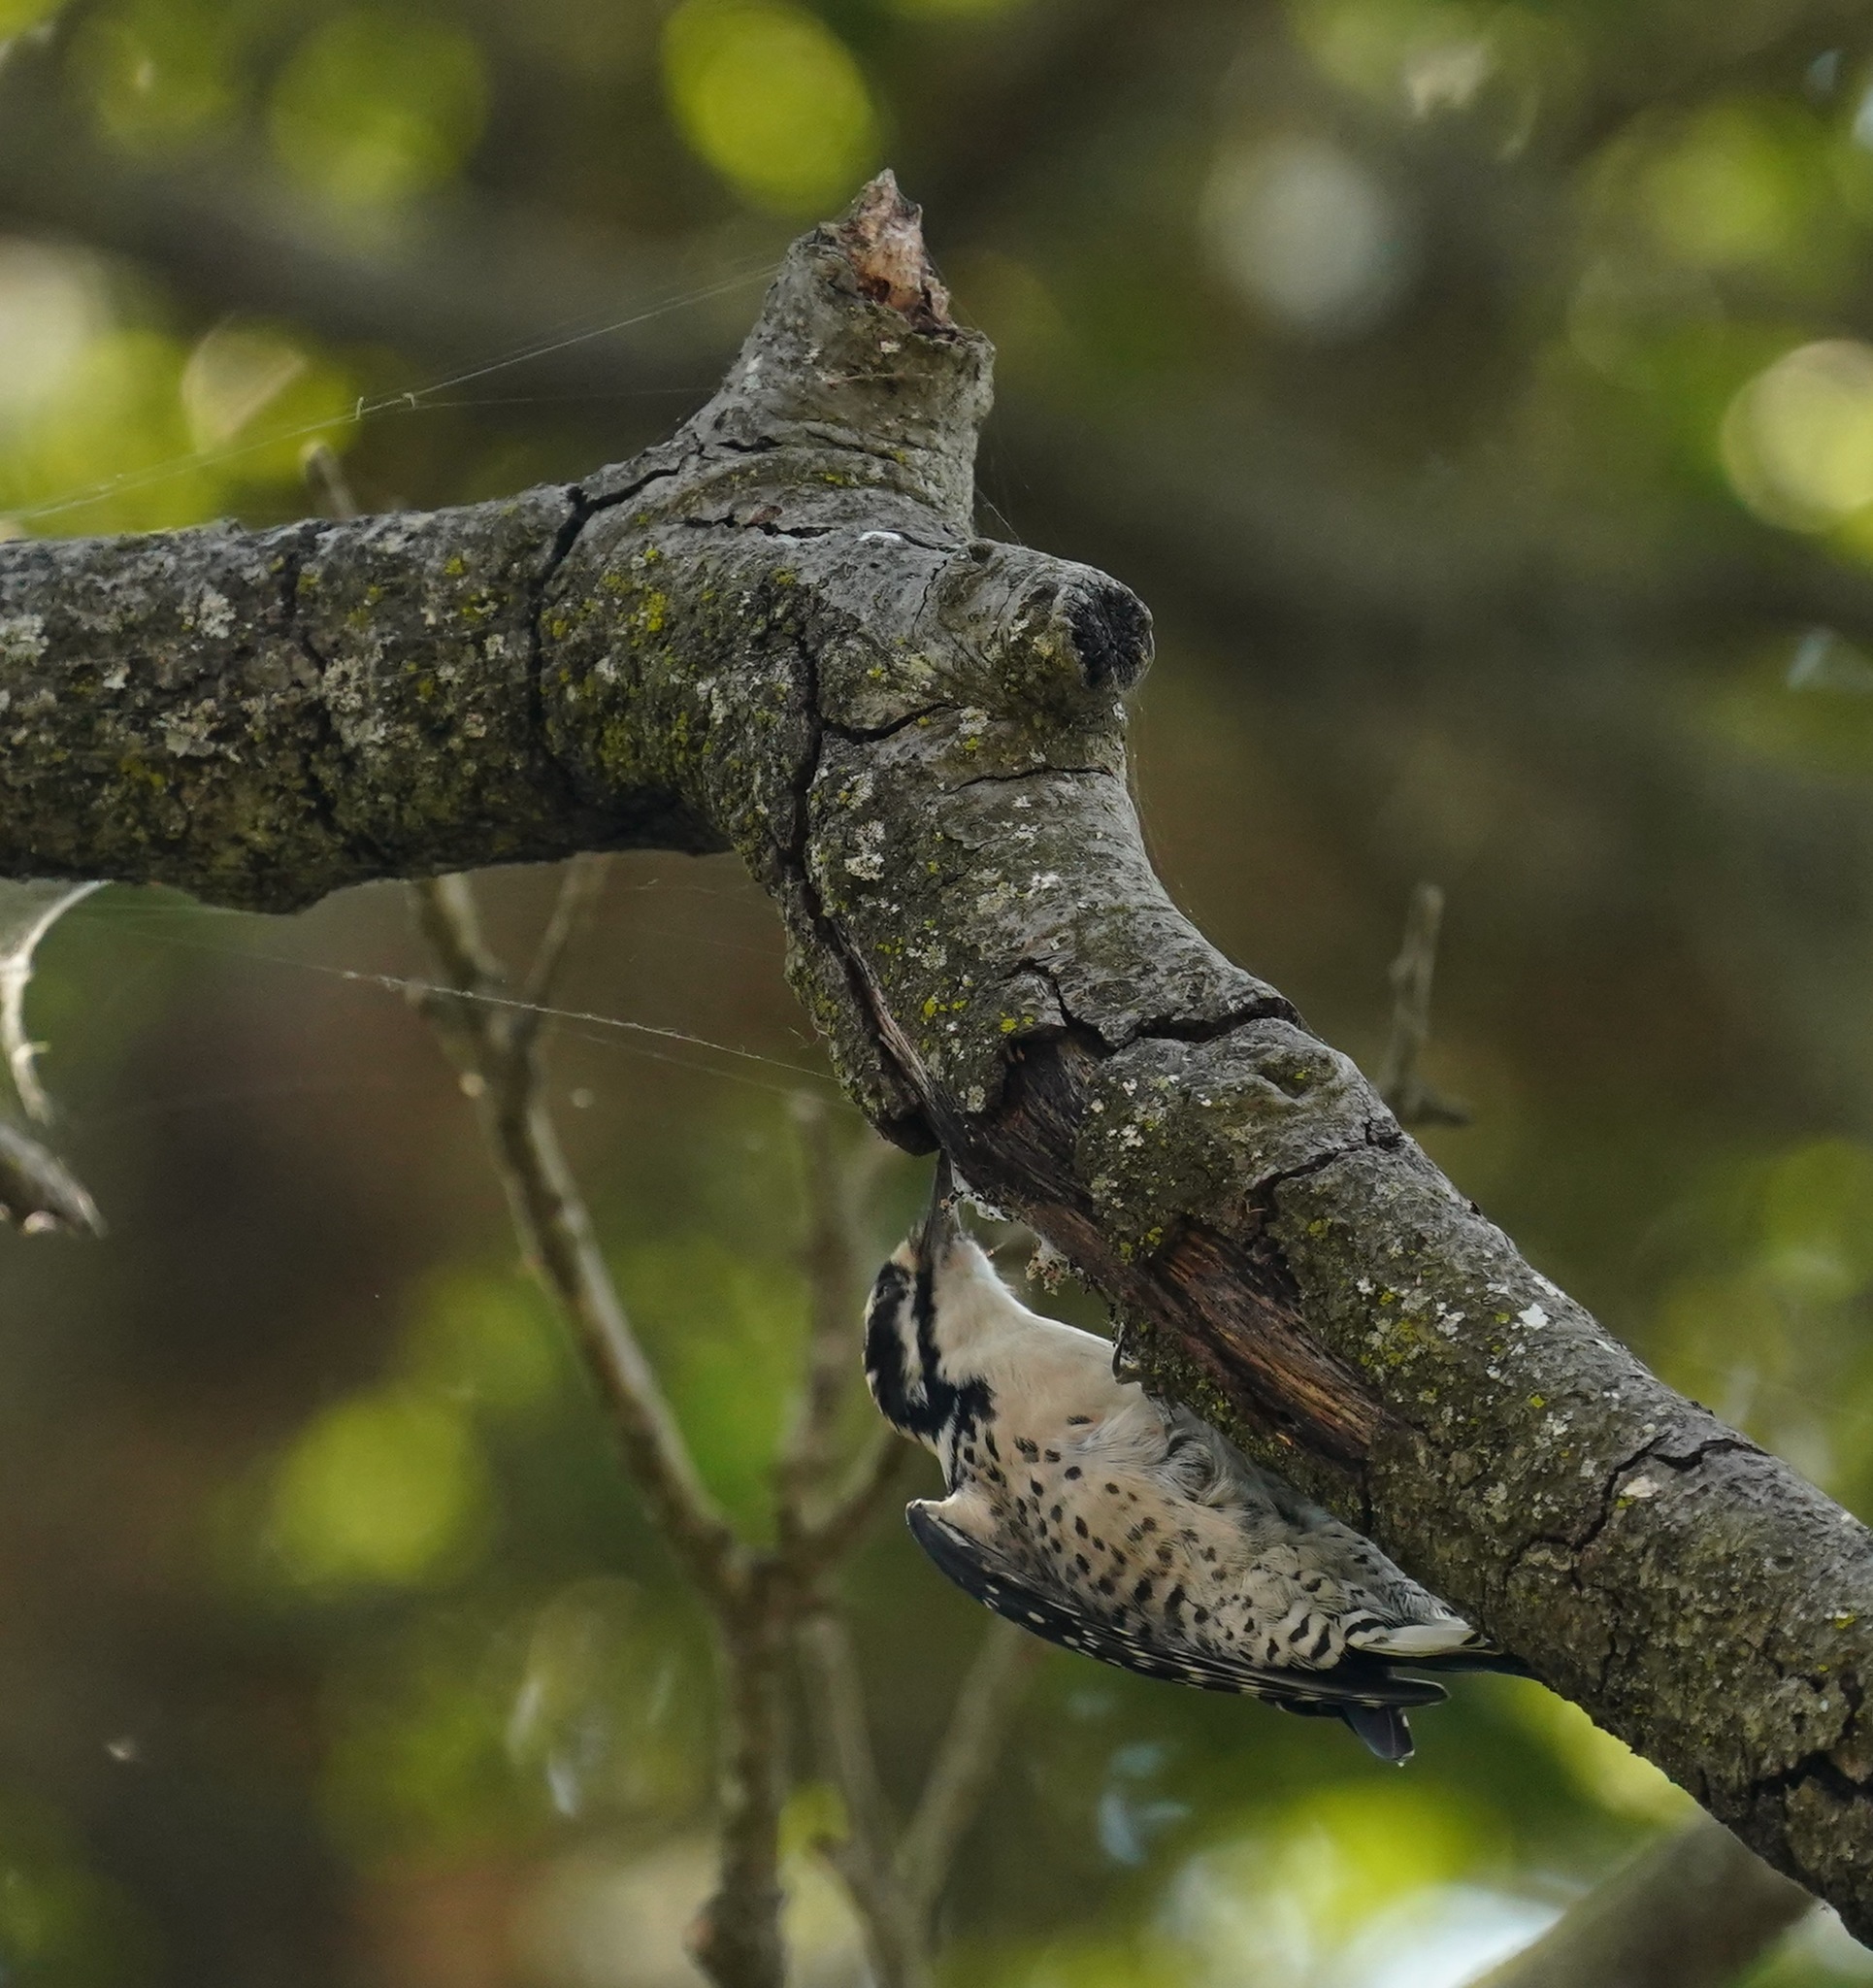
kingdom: Animalia
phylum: Chordata
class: Aves
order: Piciformes
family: Picidae
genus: Dryobates
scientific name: Dryobates nuttallii
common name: Nuttall's woodpecker
